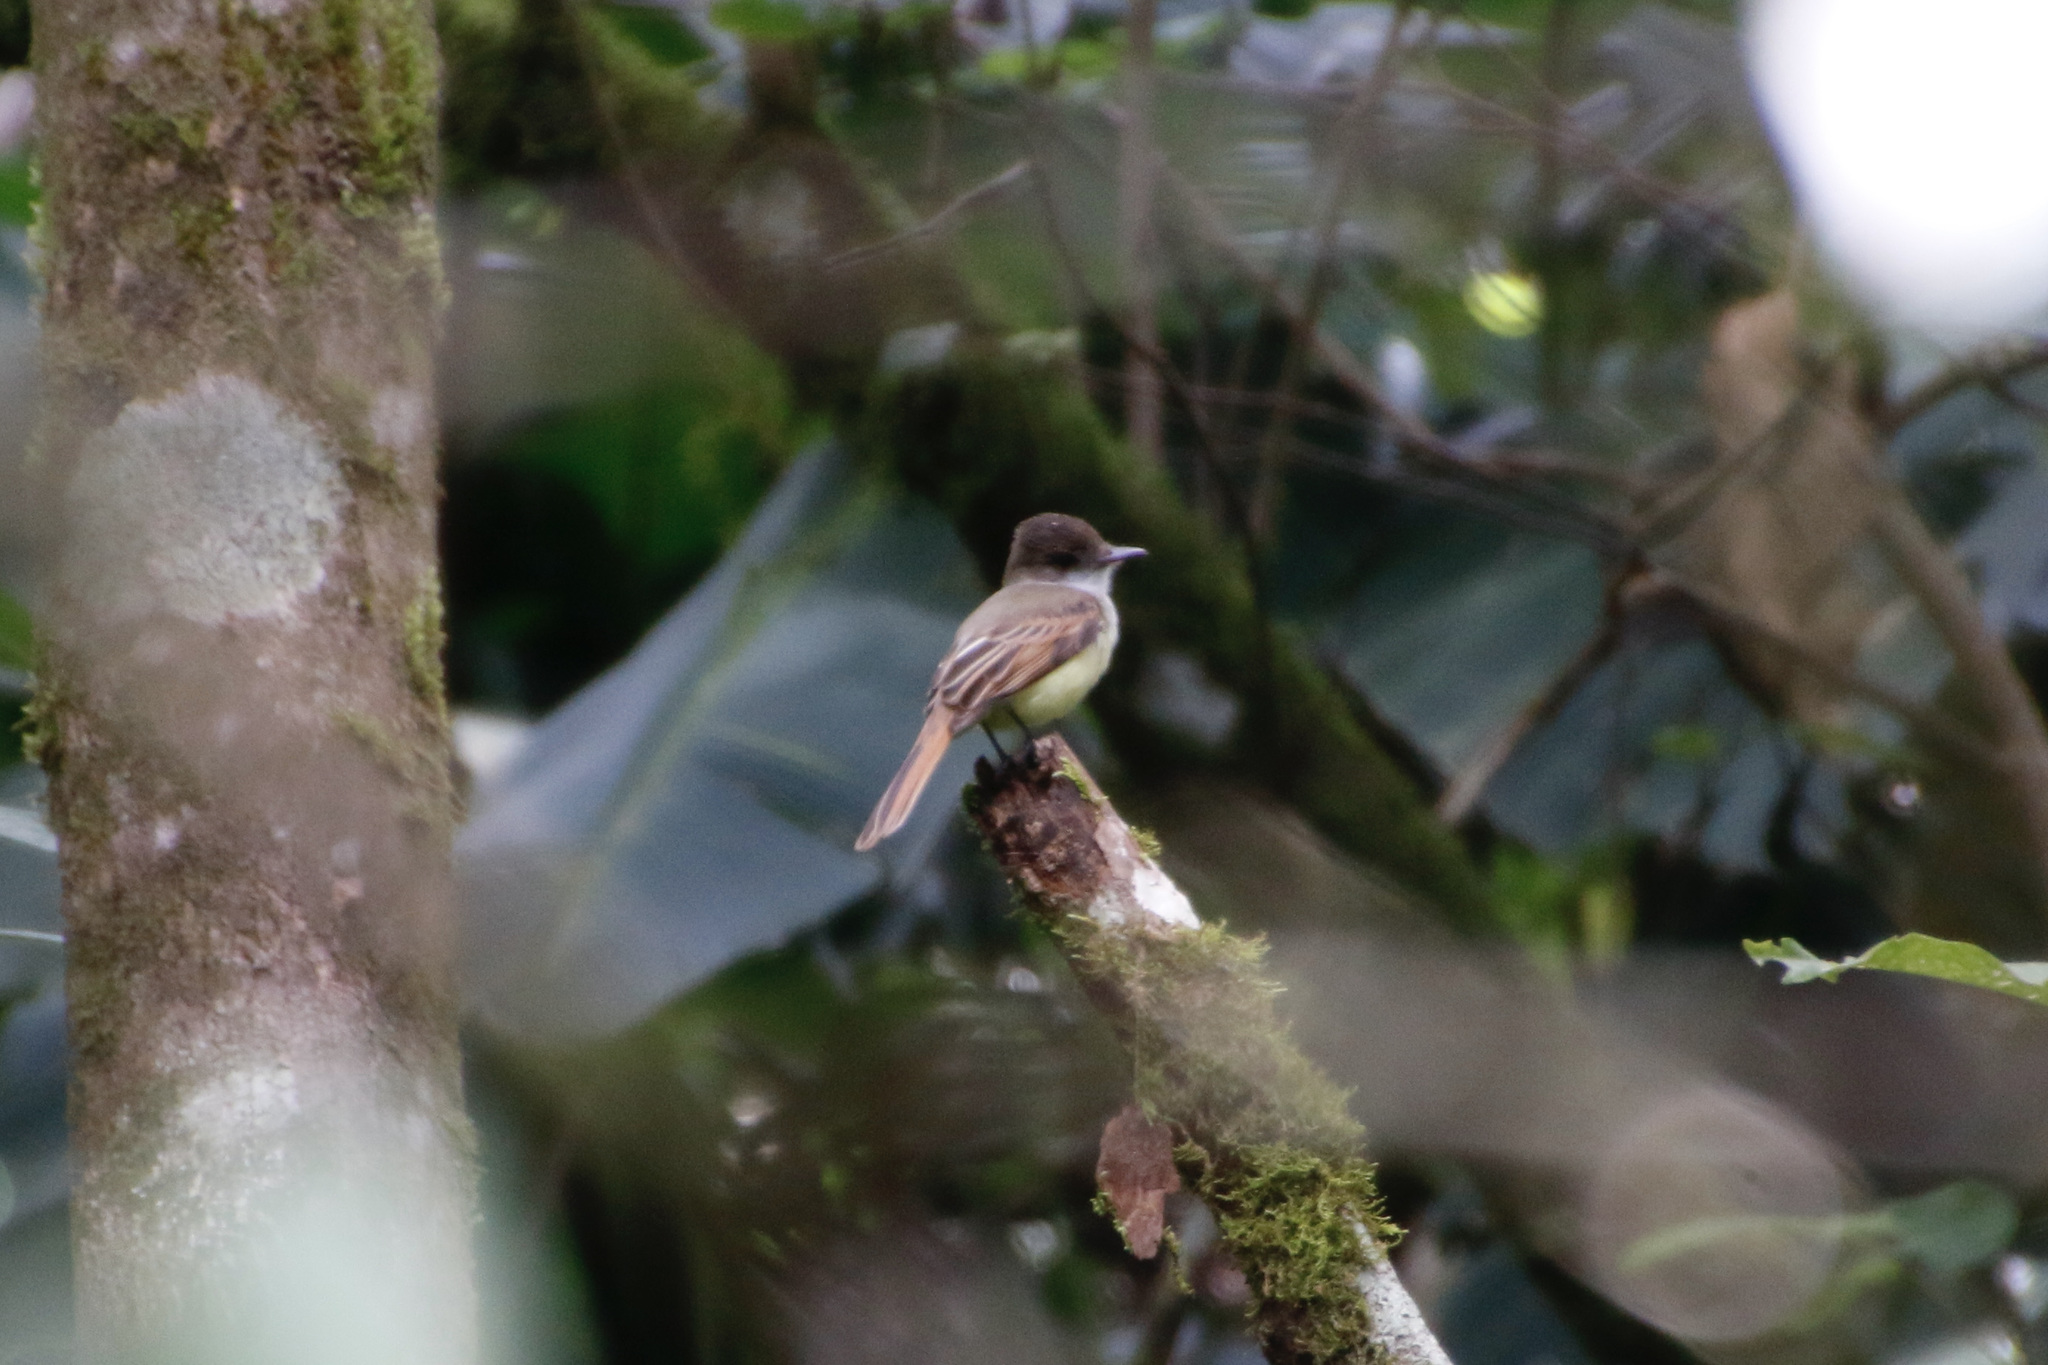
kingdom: Animalia
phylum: Chordata
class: Aves
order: Passeriformes
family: Tyrannidae
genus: Myiarchus
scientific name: Myiarchus tuberculifer
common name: Dusky-capped flycatcher
